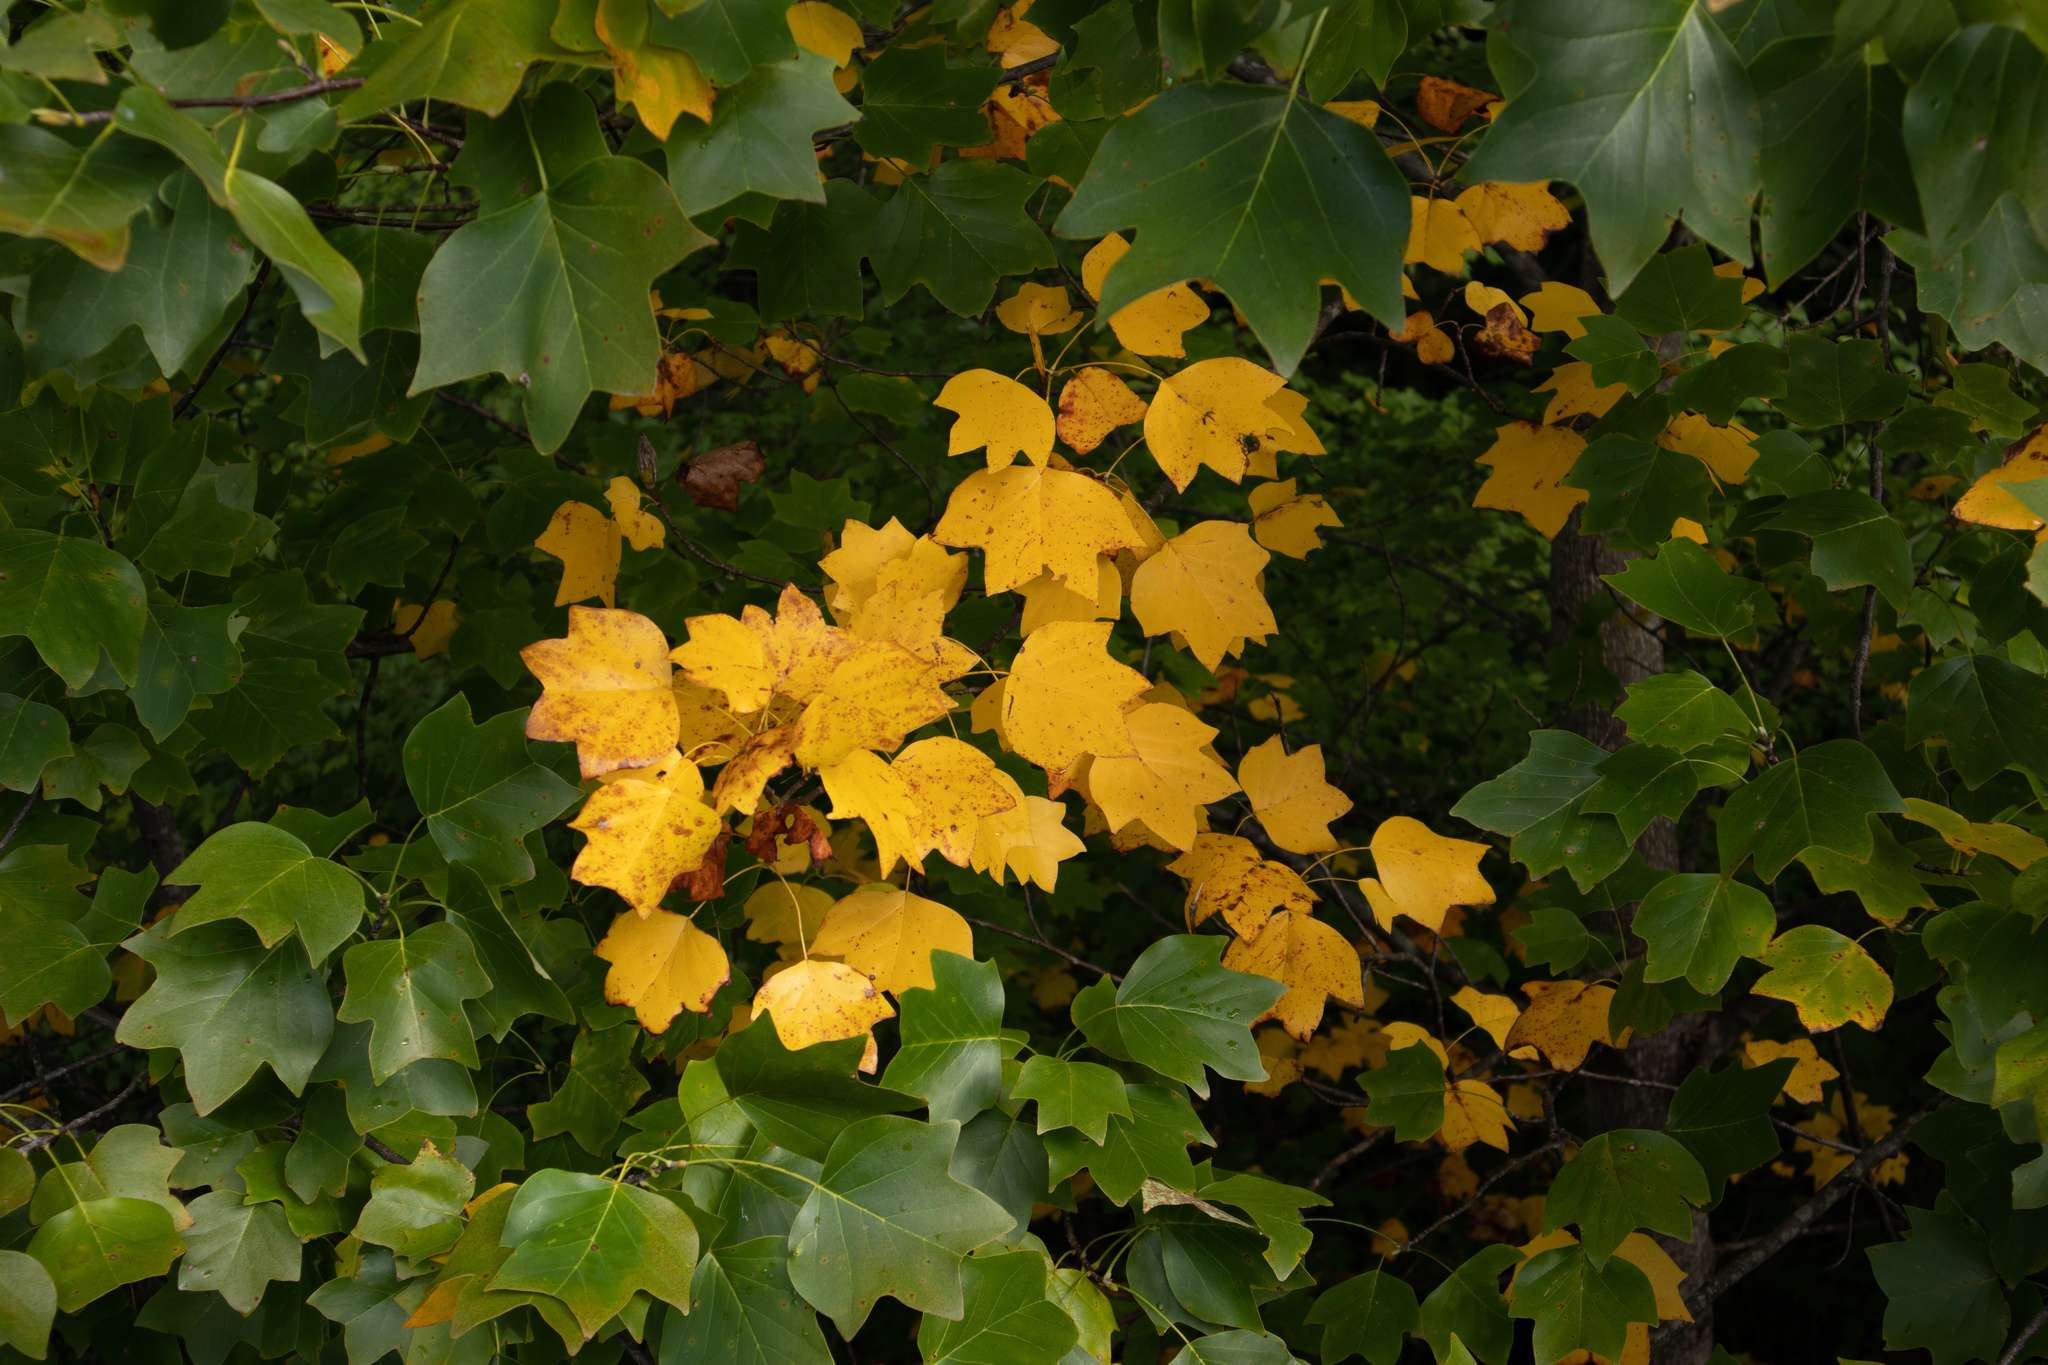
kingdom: Plantae
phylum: Tracheophyta
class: Magnoliopsida
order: Magnoliales
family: Magnoliaceae
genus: Liriodendron
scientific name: Liriodendron tulipifera
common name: Tulip tree
